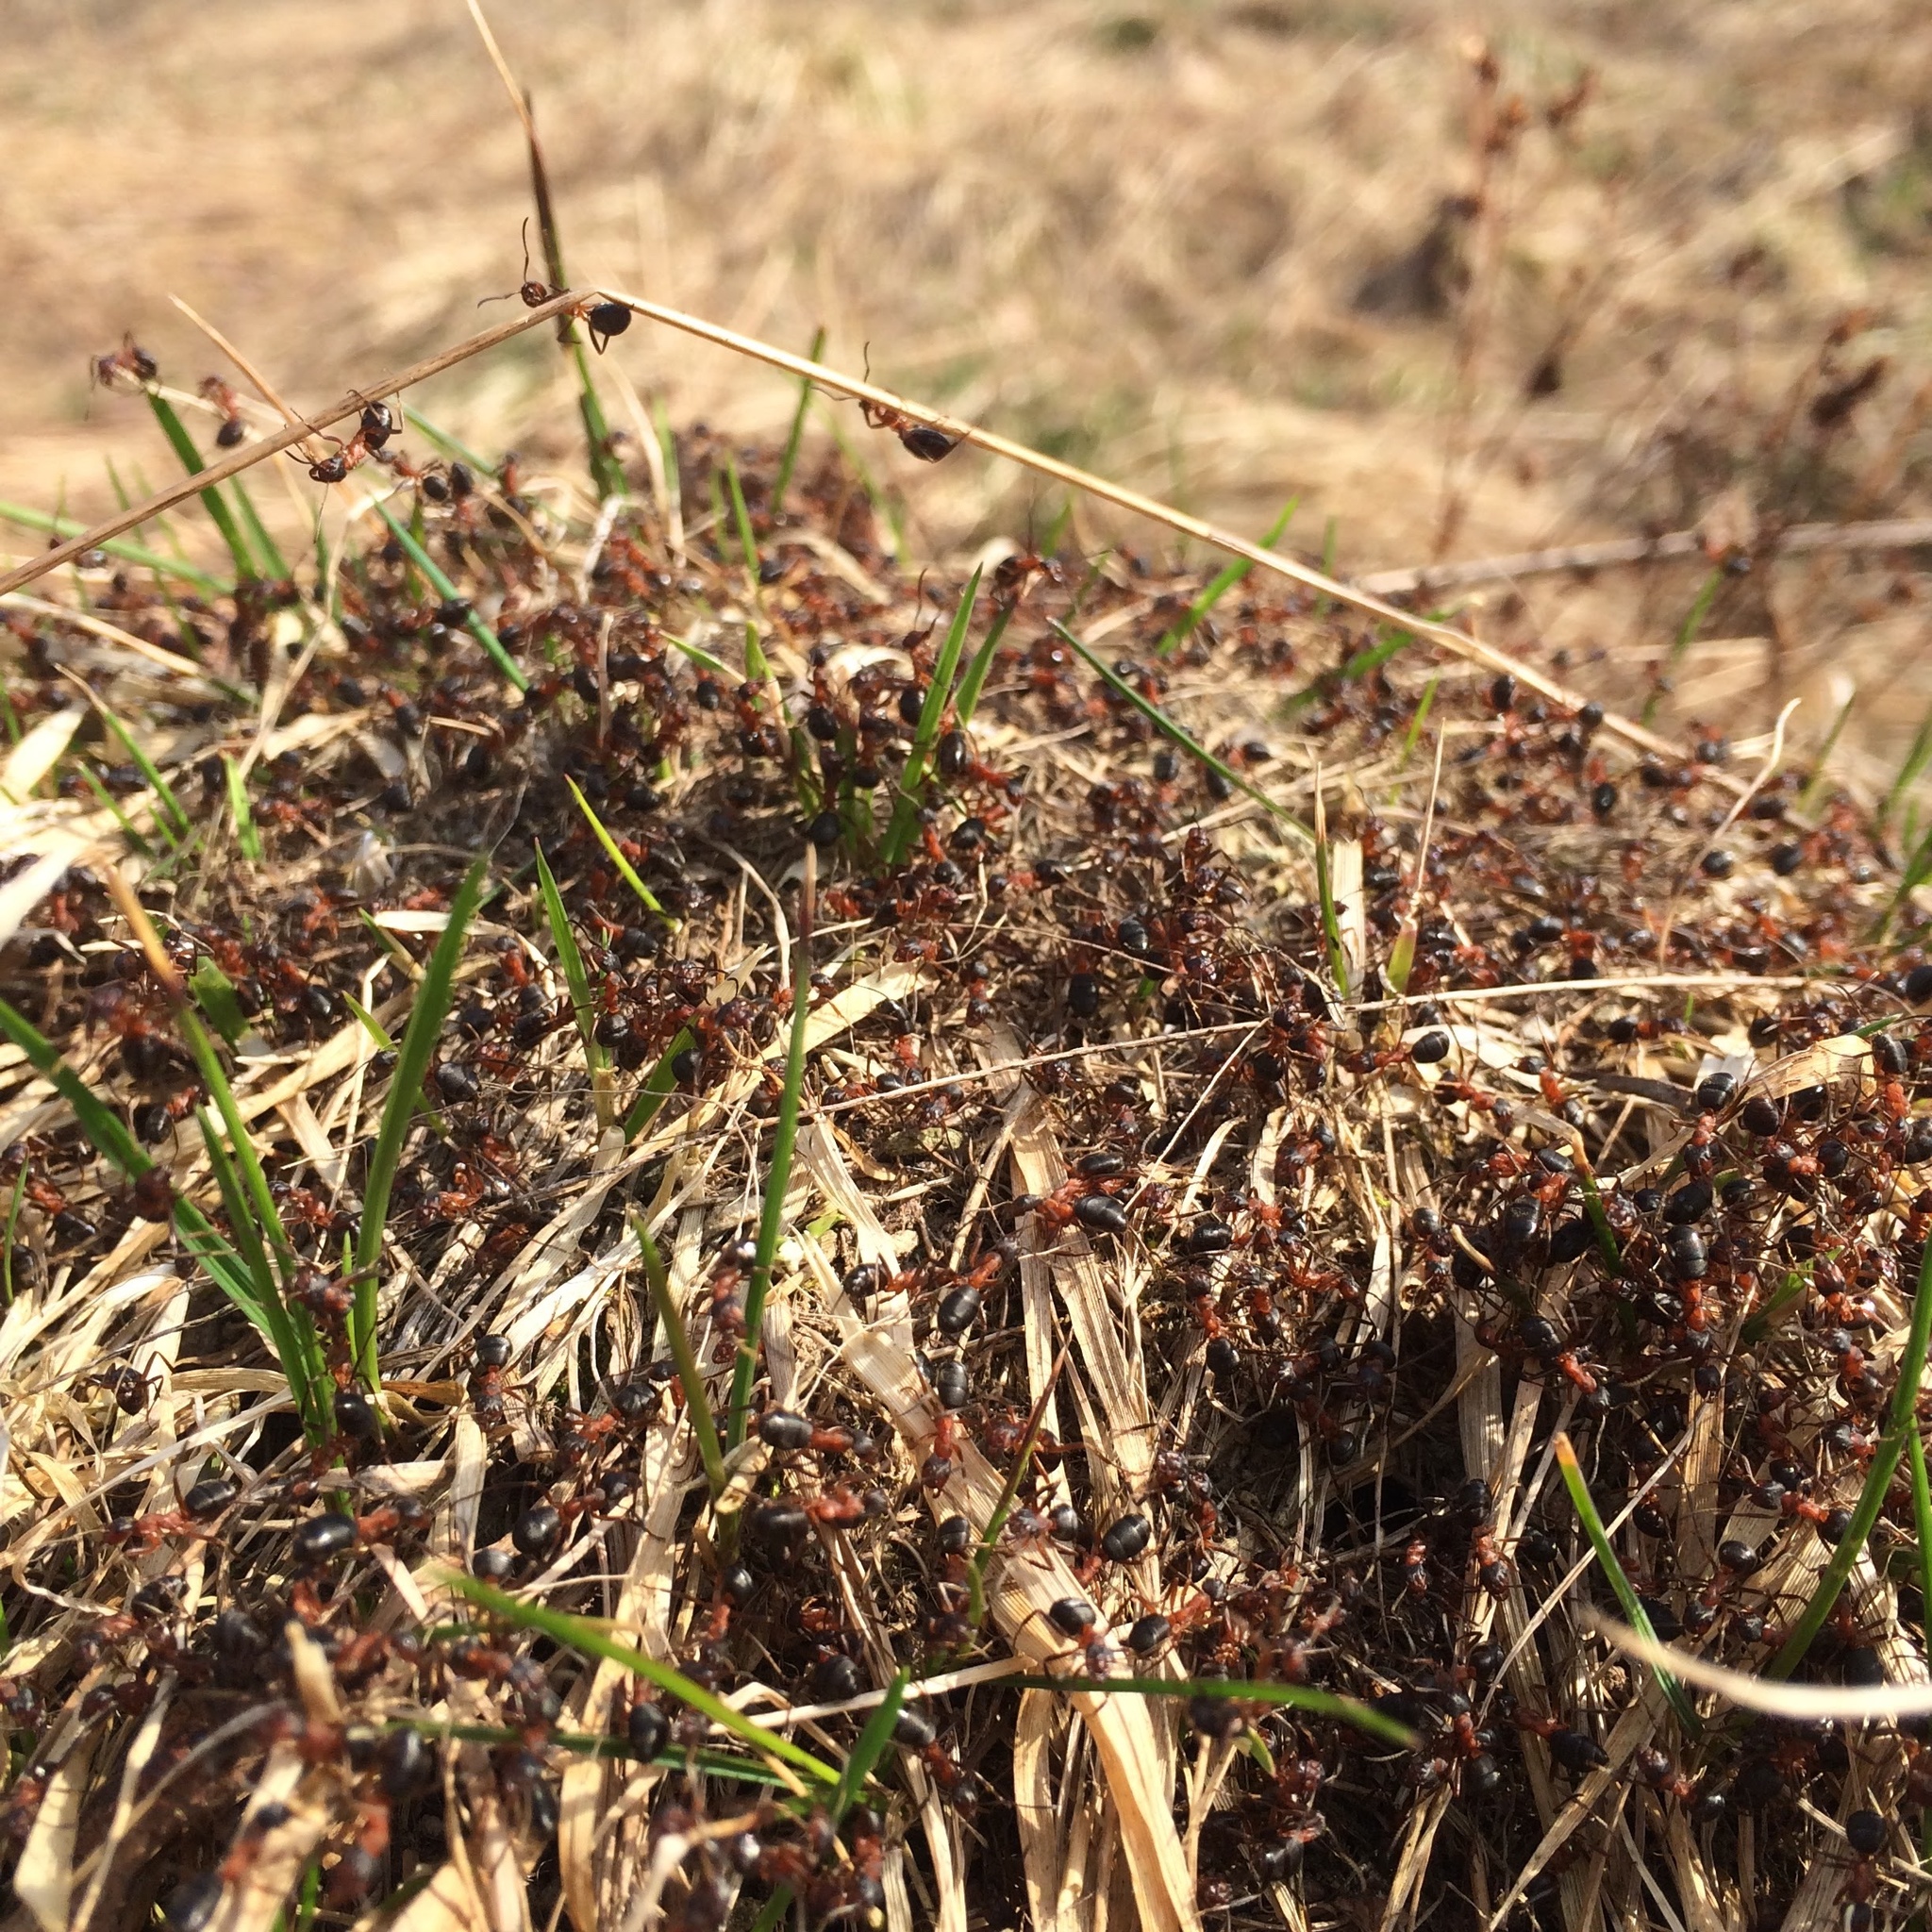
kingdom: Animalia
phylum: Arthropoda
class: Insecta
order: Hymenoptera
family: Formicidae
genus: Formica
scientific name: Formica exsecta
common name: Narrow headed ant
